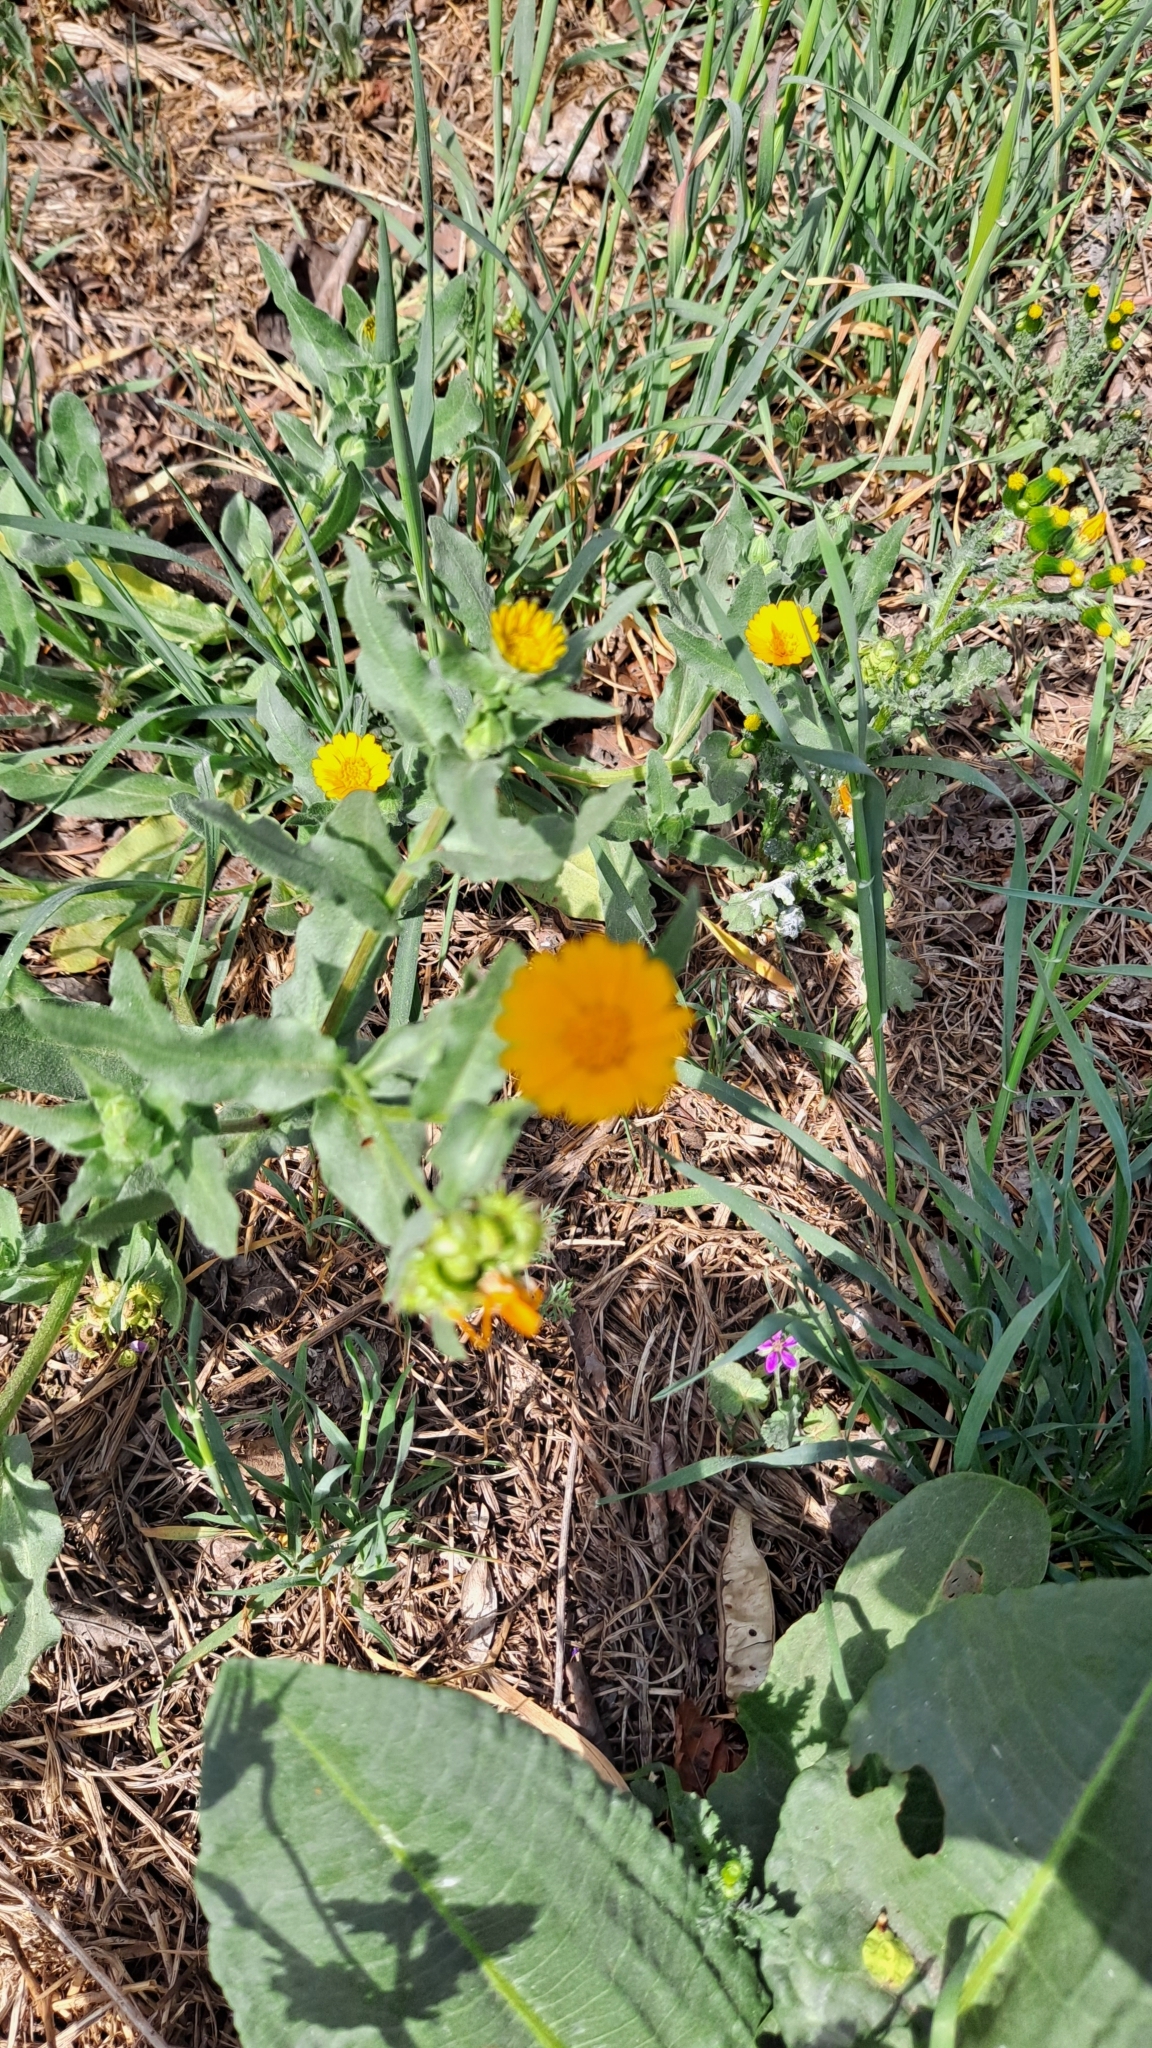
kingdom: Plantae
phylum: Tracheophyta
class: Magnoliopsida
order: Asterales
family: Asteraceae
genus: Calendula
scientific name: Calendula arvensis
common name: Field marigold
